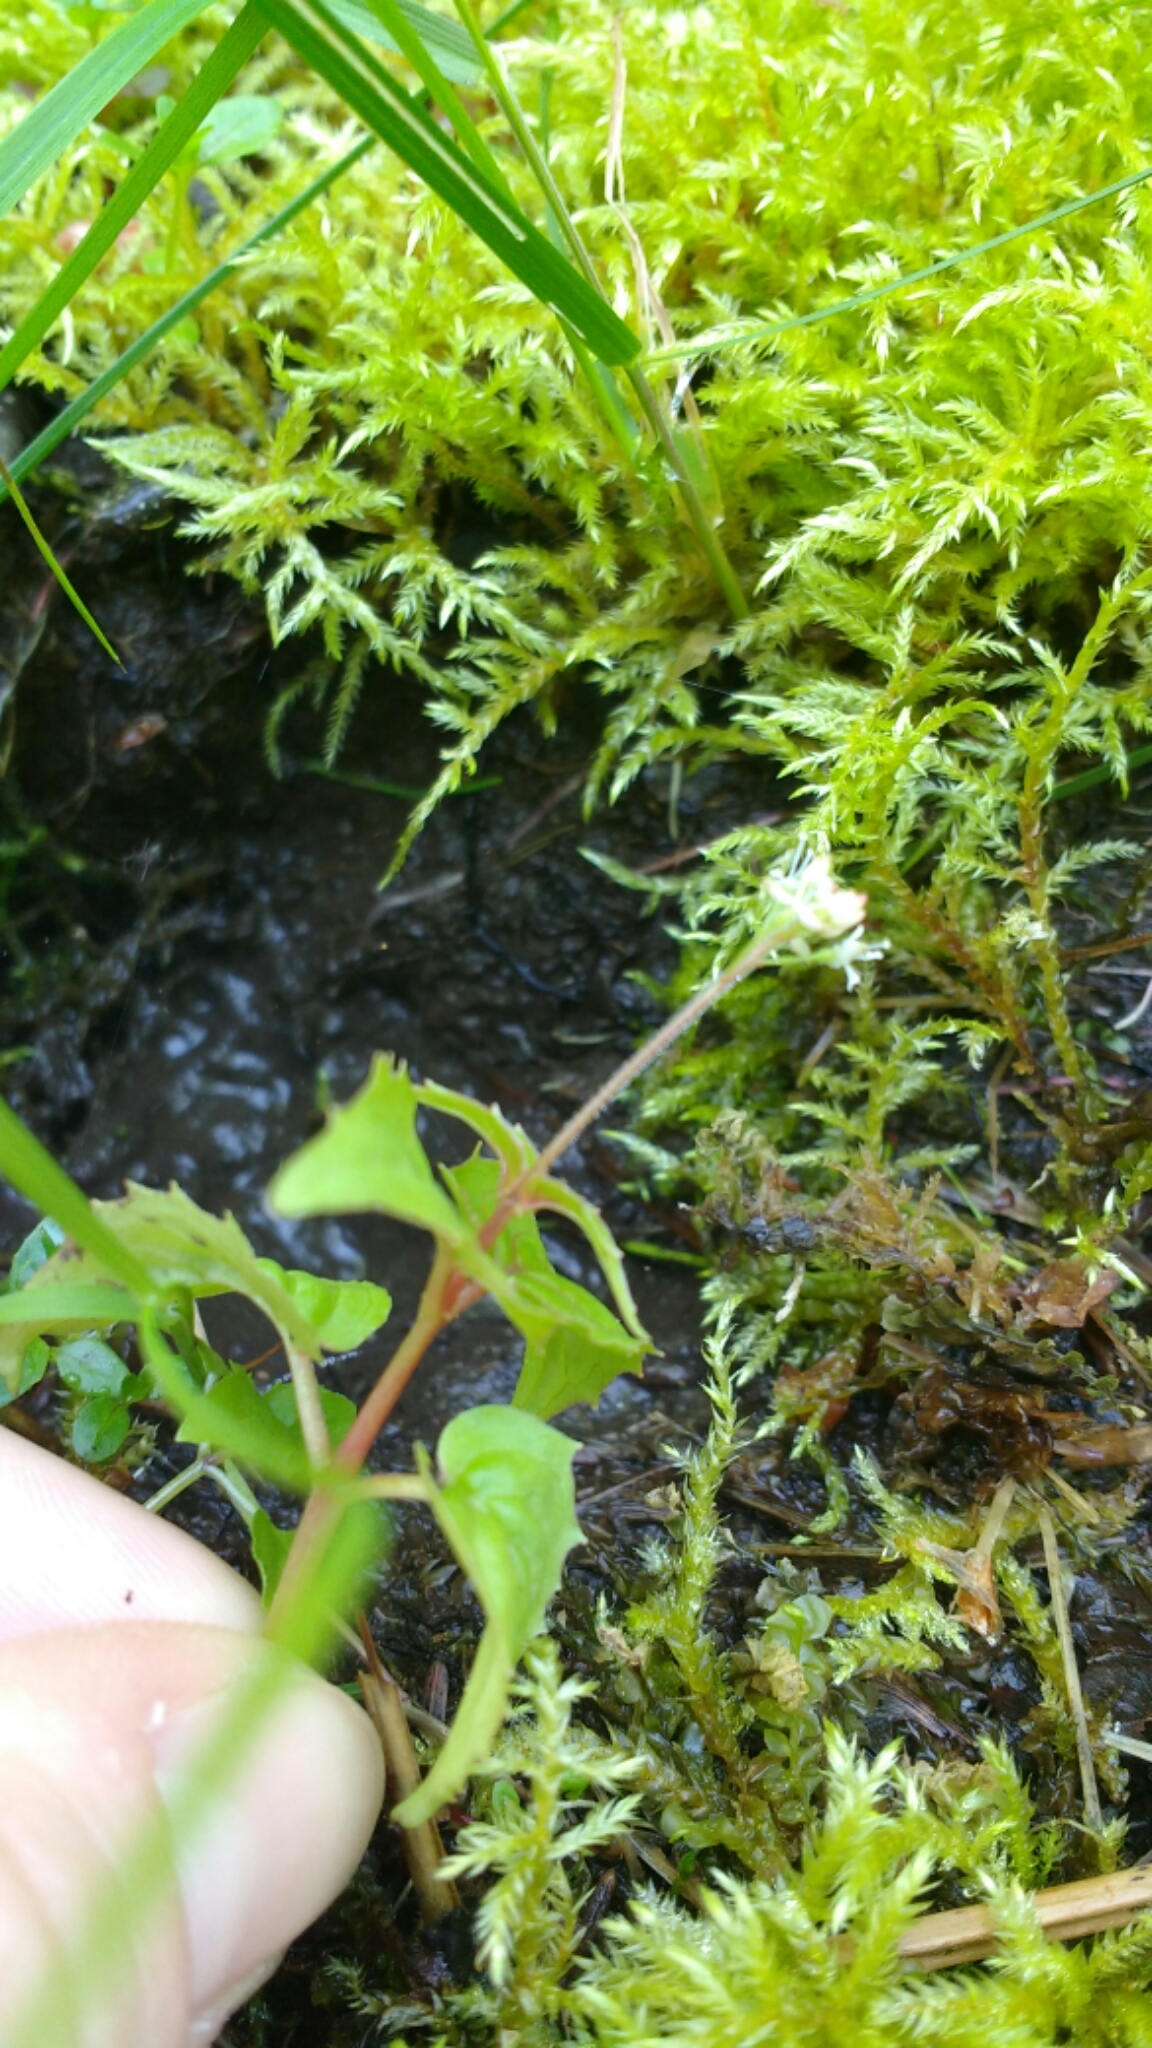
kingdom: Plantae
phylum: Tracheophyta
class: Magnoliopsida
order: Myrtales
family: Onagraceae
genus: Circaea
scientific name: Circaea alpina
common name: Alpine enchanter's-nightshade
